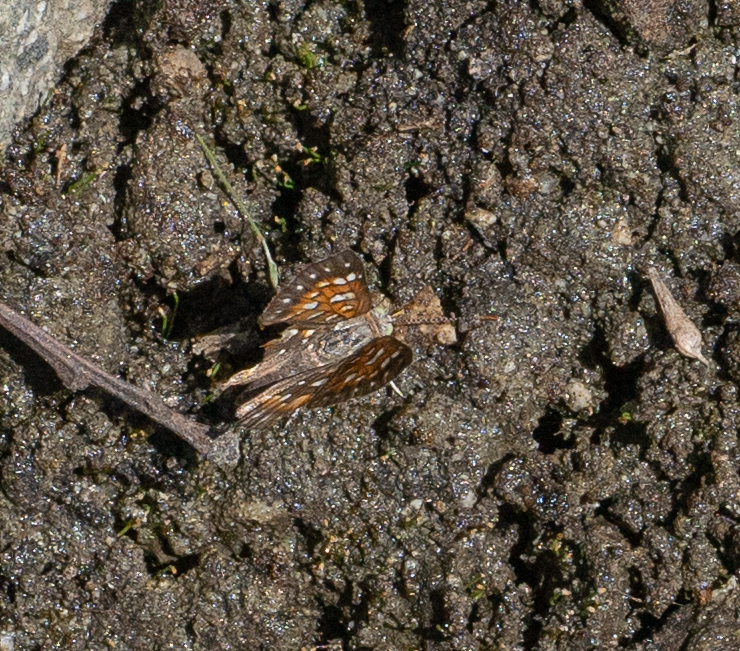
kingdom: Animalia
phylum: Arthropoda
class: Insecta
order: Lepidoptera
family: Riodinidae
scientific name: Riodinidae
